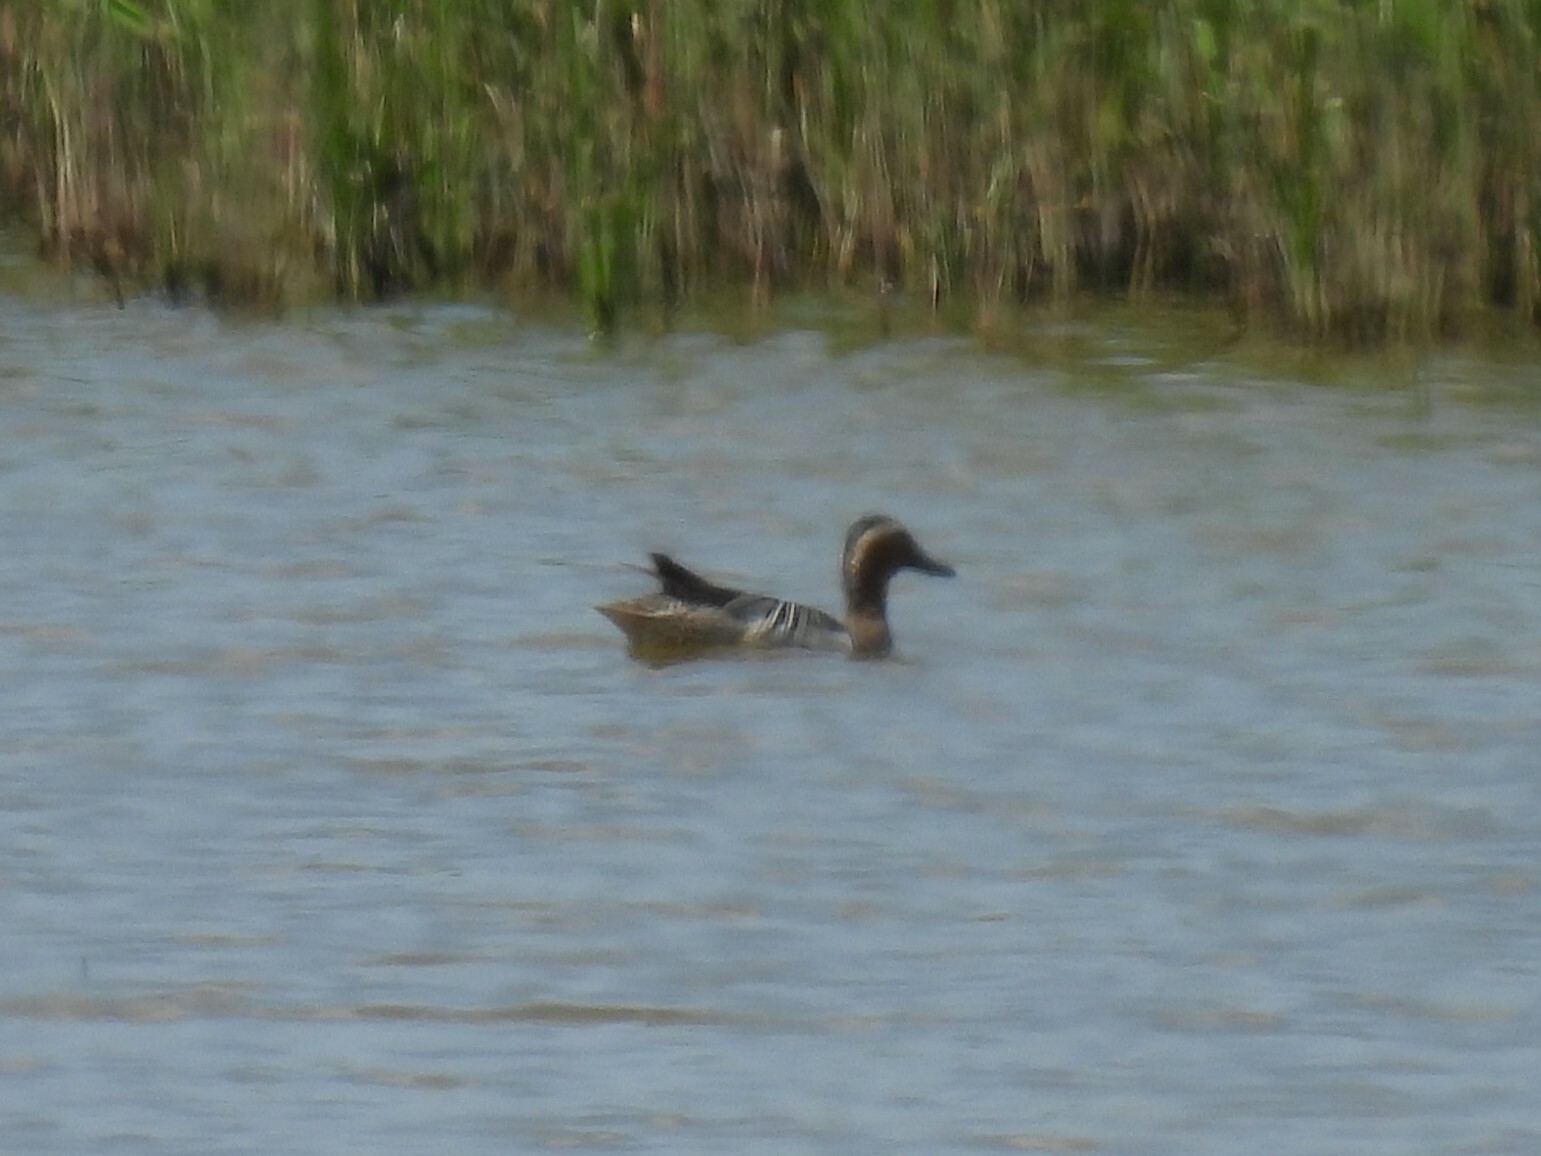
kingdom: Animalia
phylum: Chordata
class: Aves
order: Anseriformes
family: Anatidae
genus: Spatula
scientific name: Spatula querquedula
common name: Garganey
